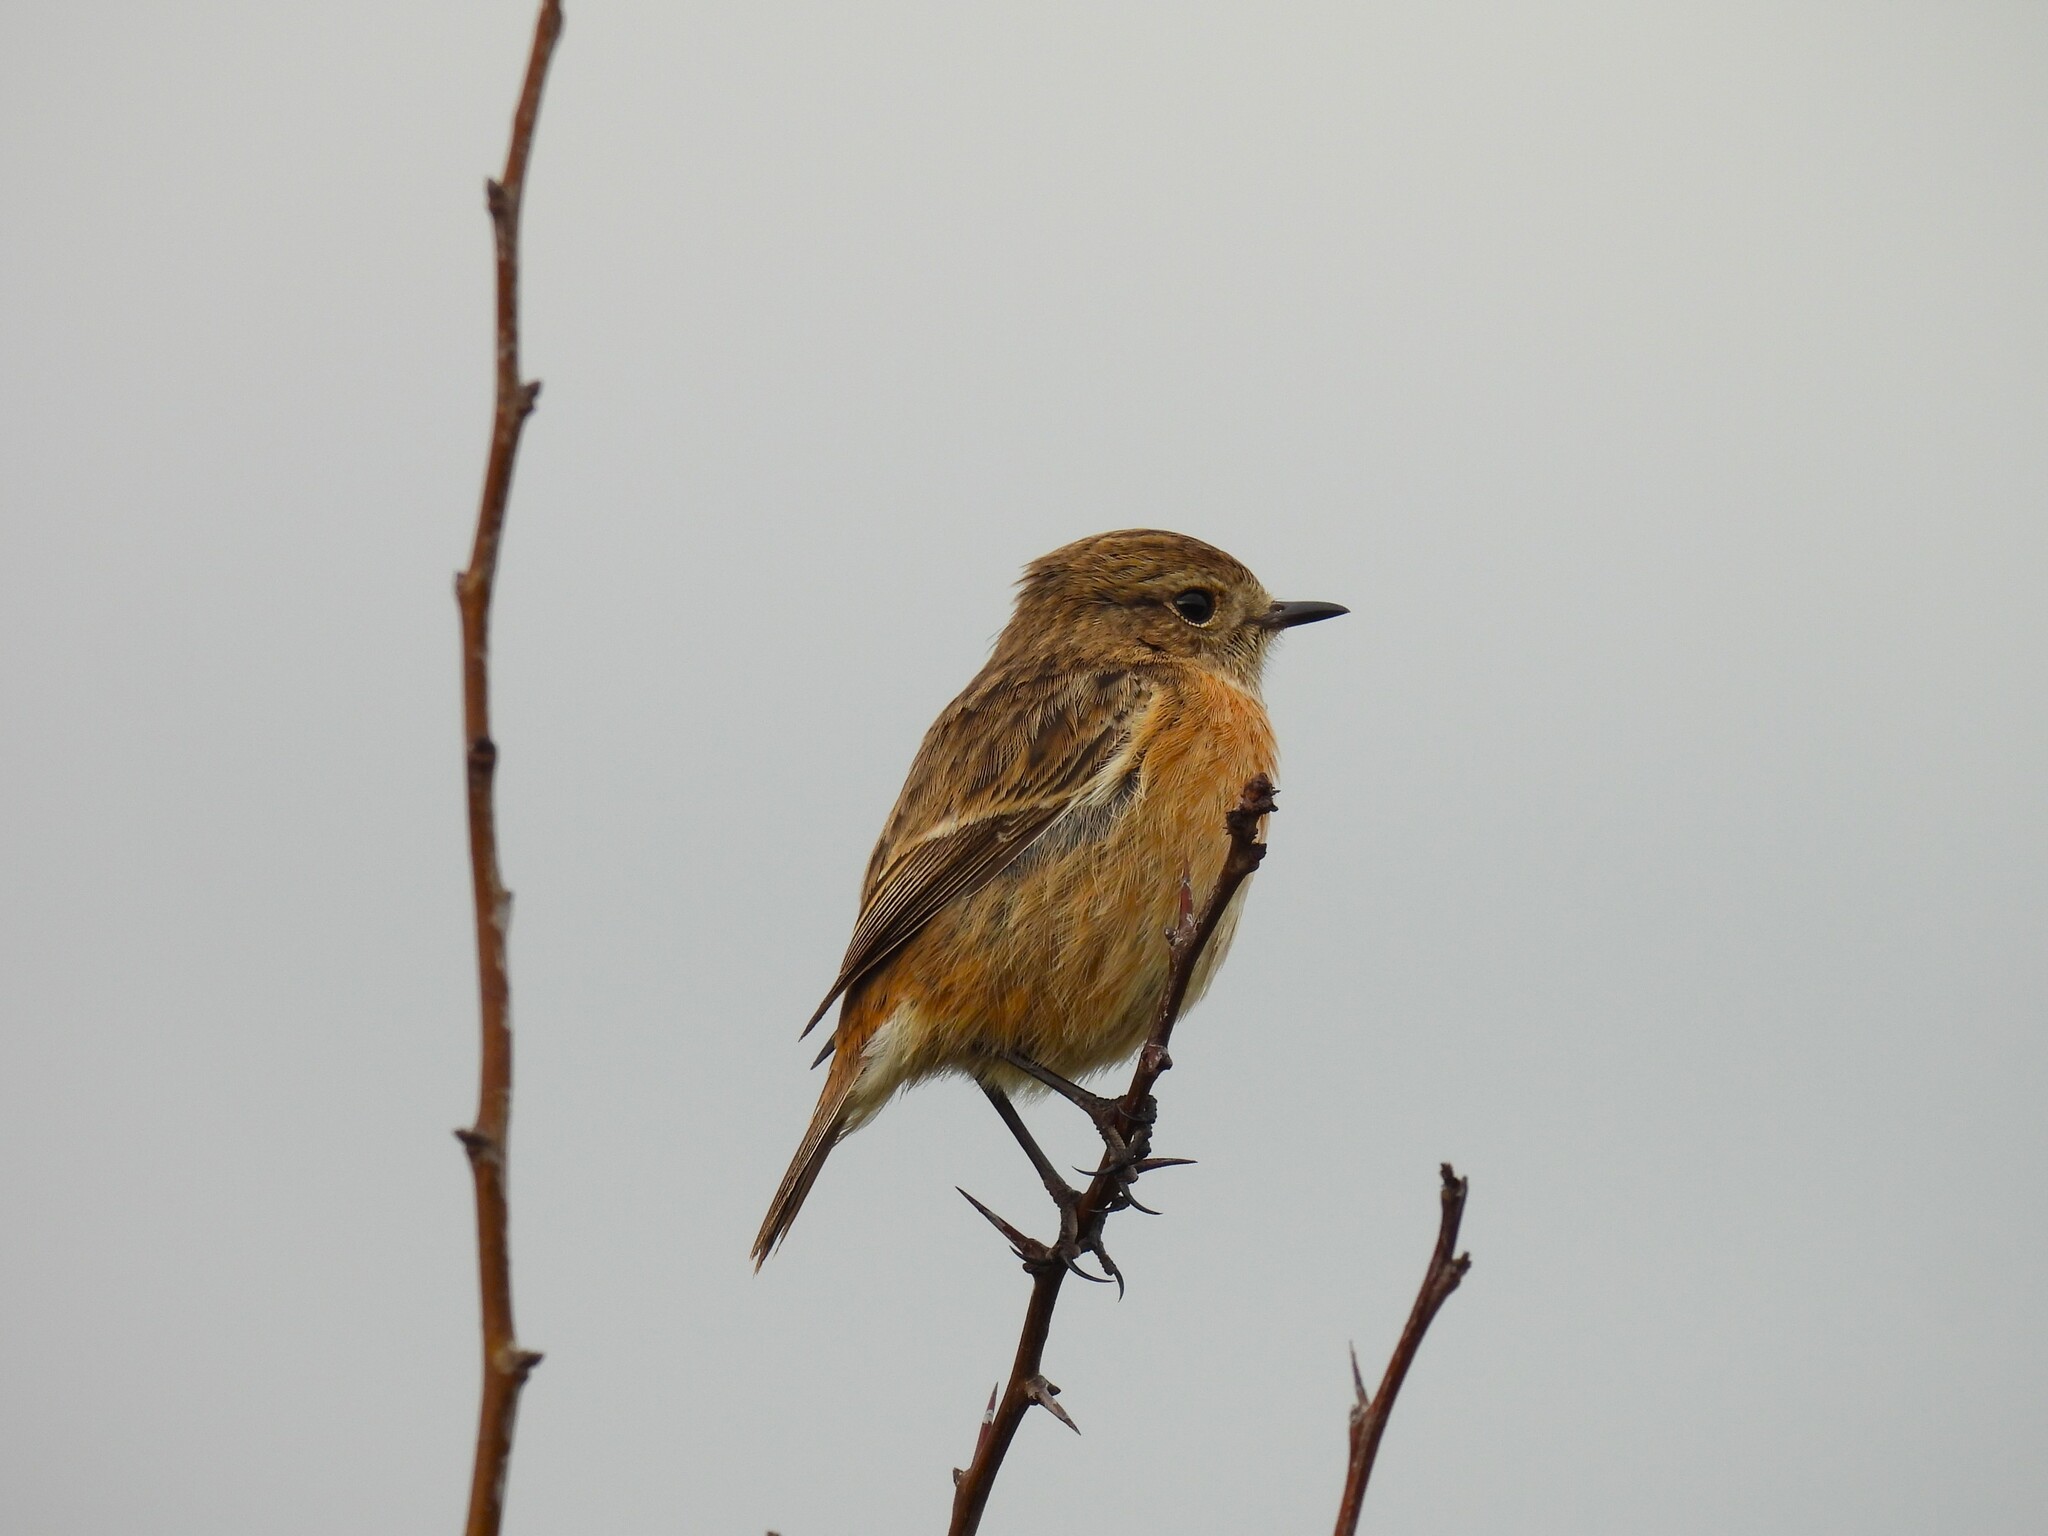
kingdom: Animalia
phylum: Chordata
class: Aves
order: Passeriformes
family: Muscicapidae
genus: Saxicola
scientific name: Saxicola rubicola
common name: European stonechat
